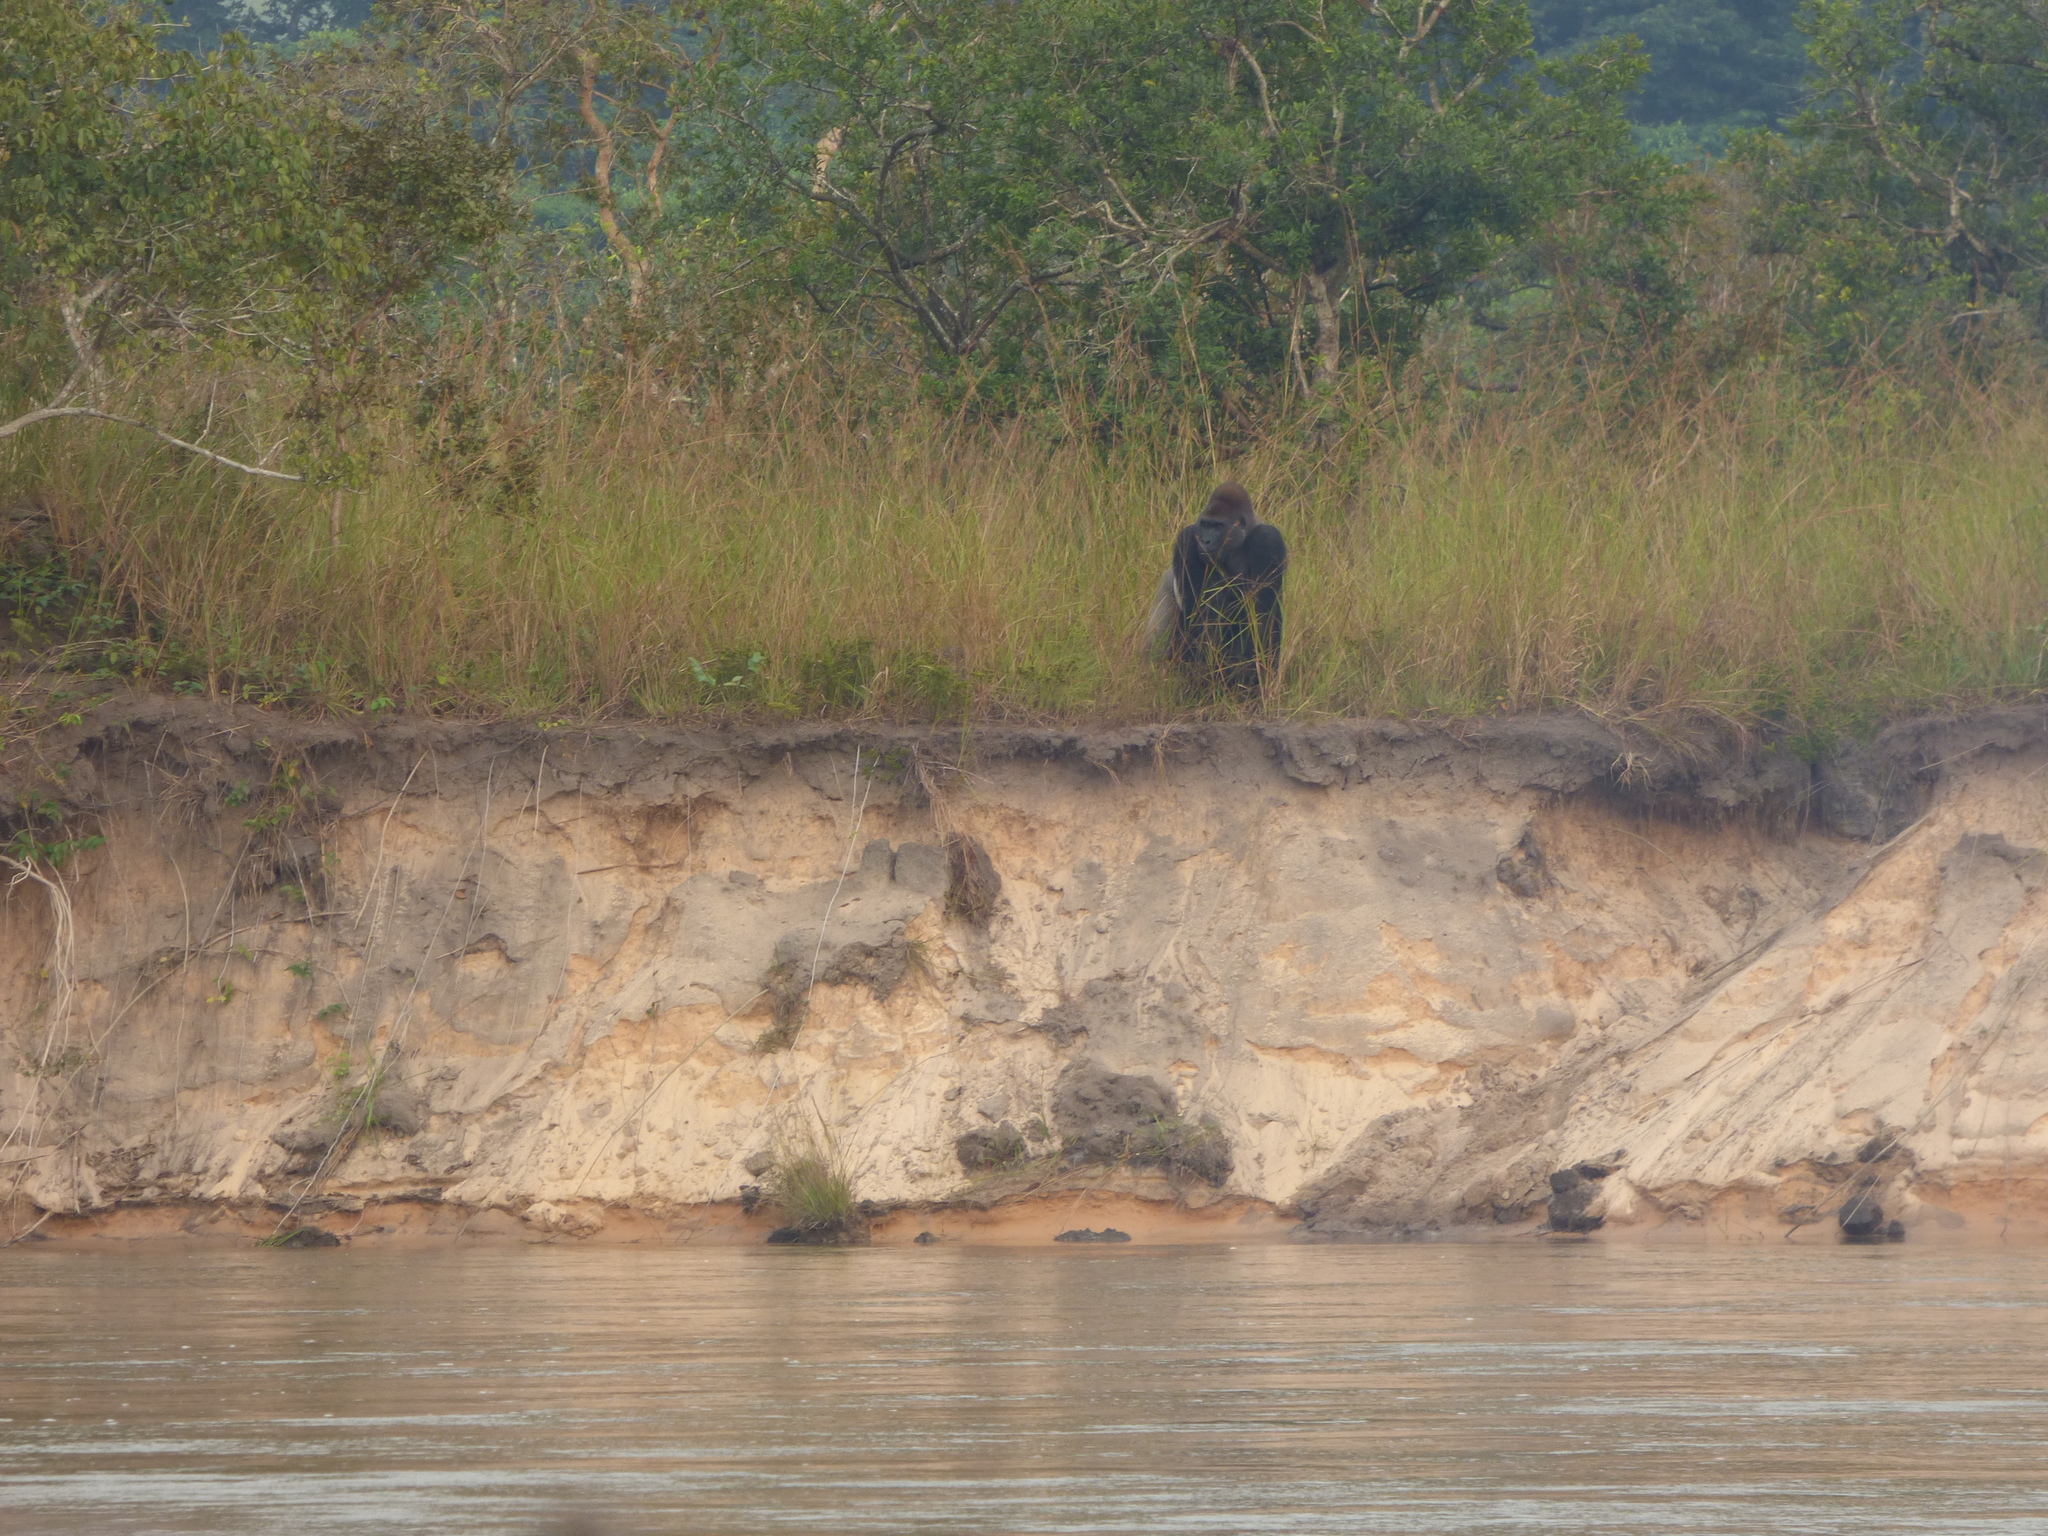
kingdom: Animalia
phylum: Chordata
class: Mammalia
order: Primates
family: Hominidae
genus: Gorilla
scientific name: Gorilla gorilla
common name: Western gorilla
